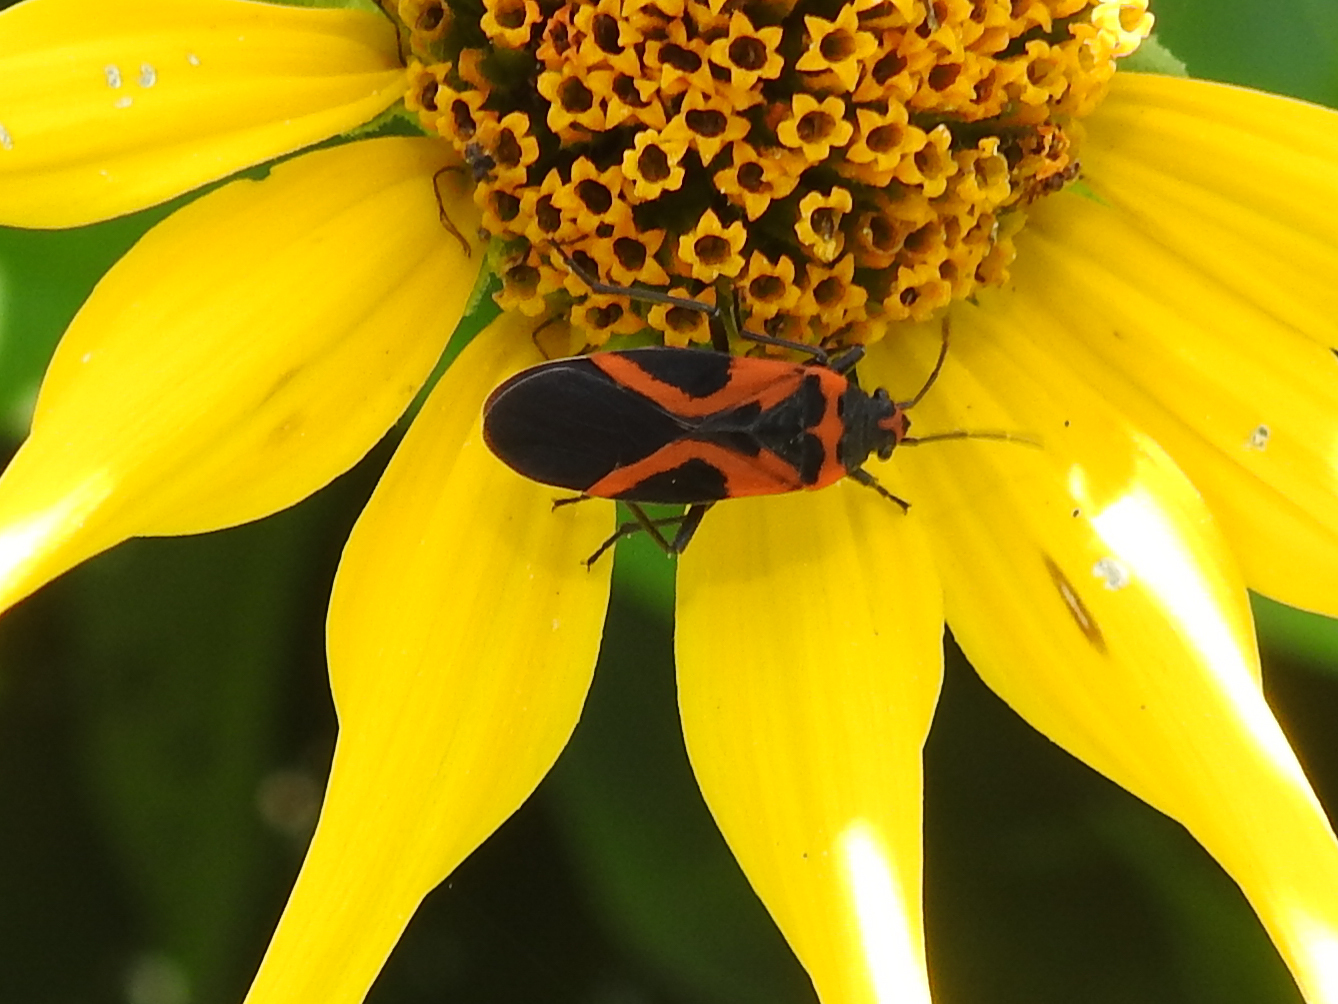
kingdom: Animalia
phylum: Arthropoda
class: Insecta
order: Hemiptera
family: Lygaeidae
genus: Lygaeus
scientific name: Lygaeus turcicus
